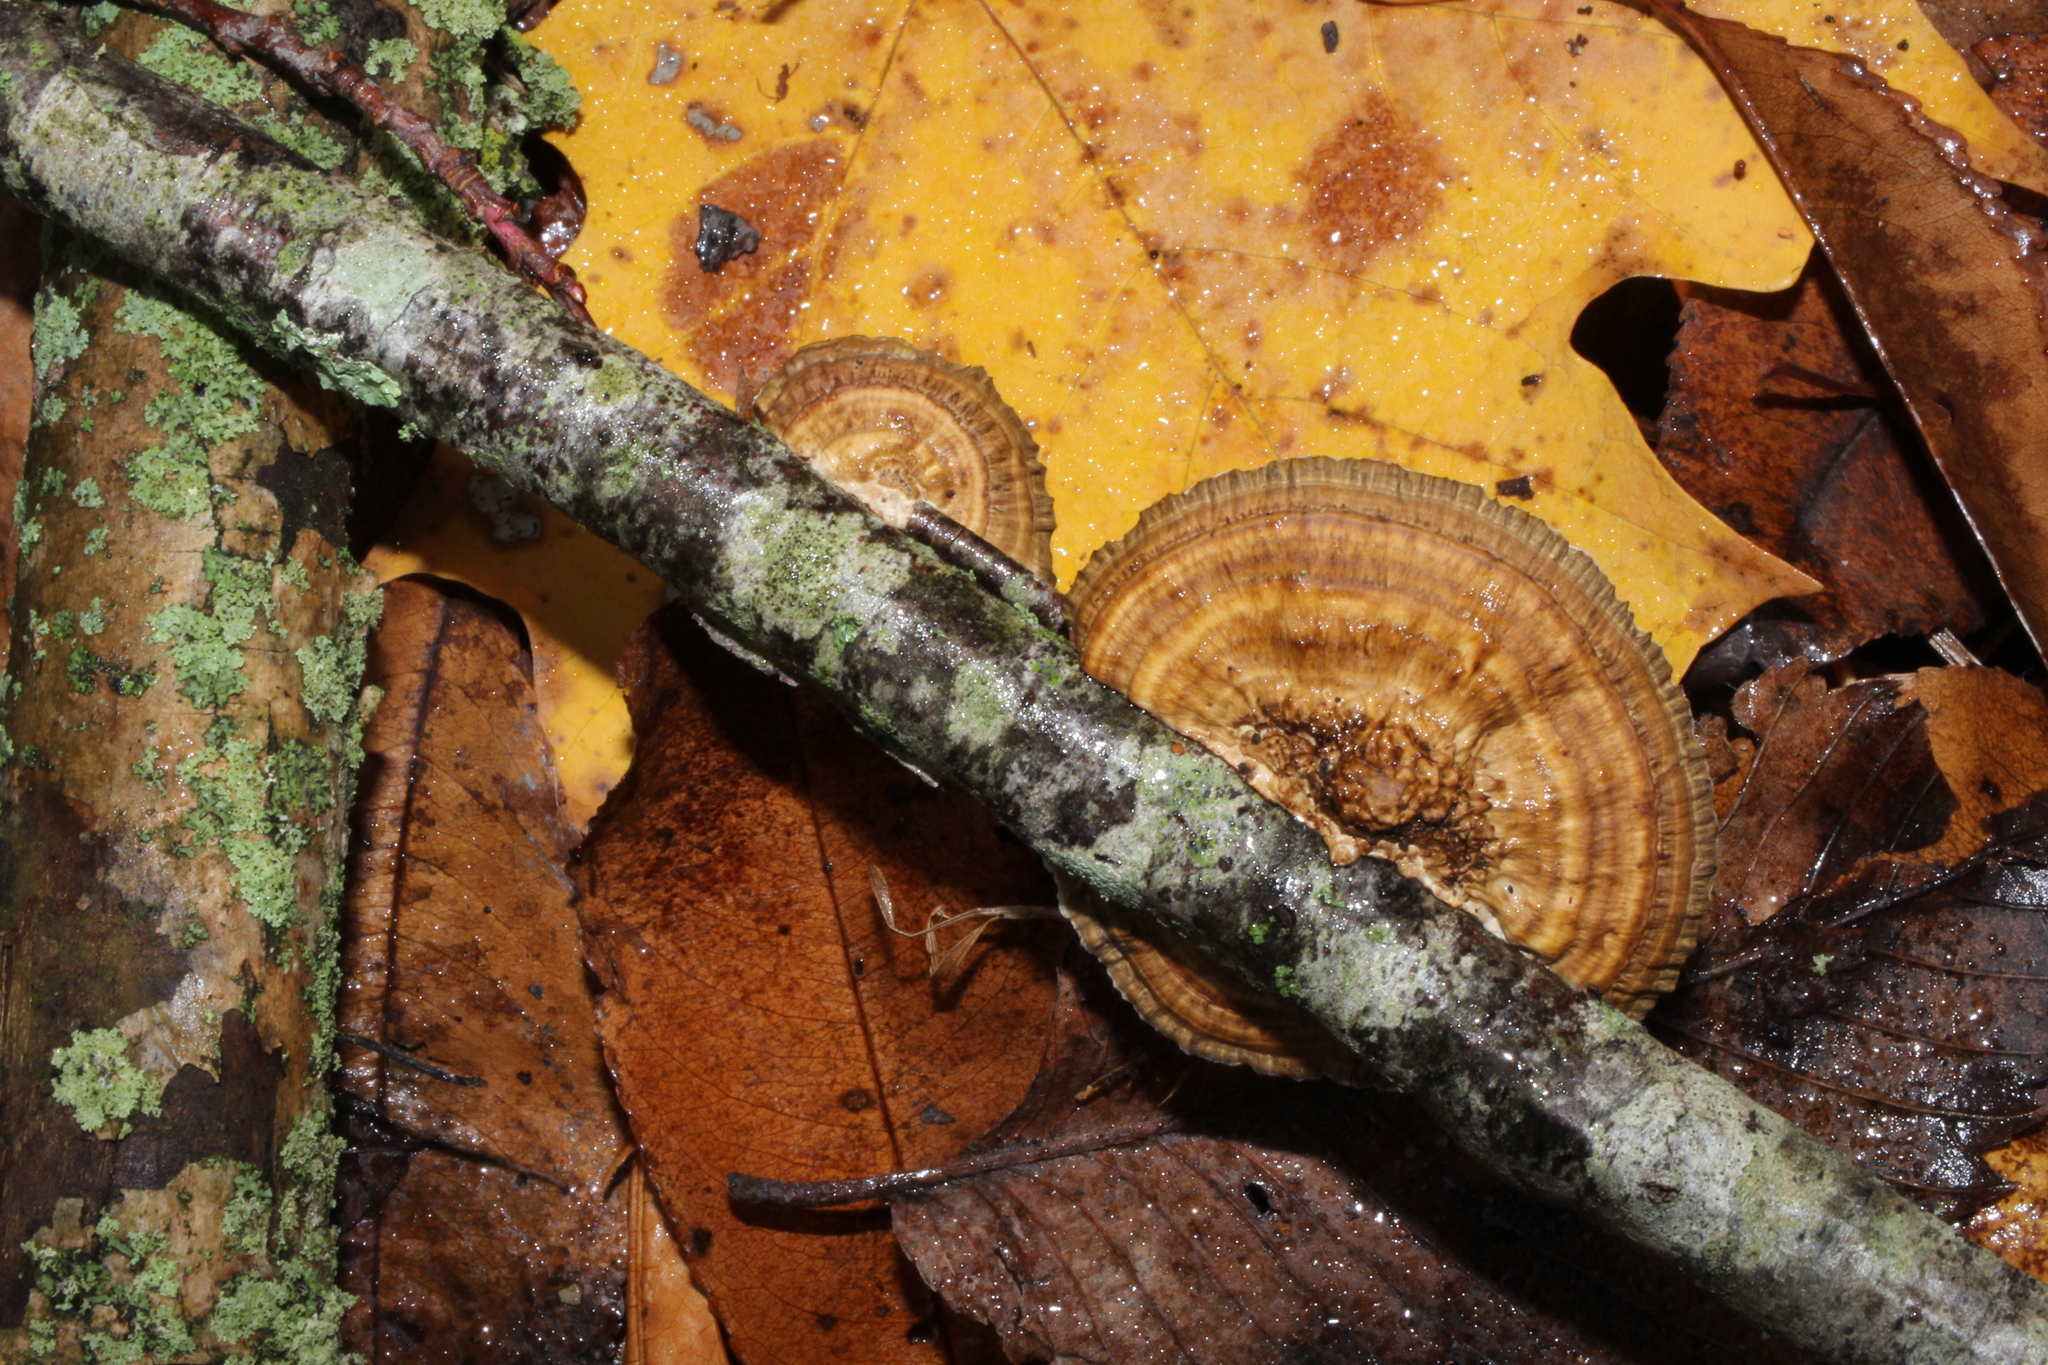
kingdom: Fungi
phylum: Basidiomycota
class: Agaricomycetes
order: Polyporales
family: Polyporaceae
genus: Daedaleopsis
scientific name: Daedaleopsis confragosa
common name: Blushing bracket
